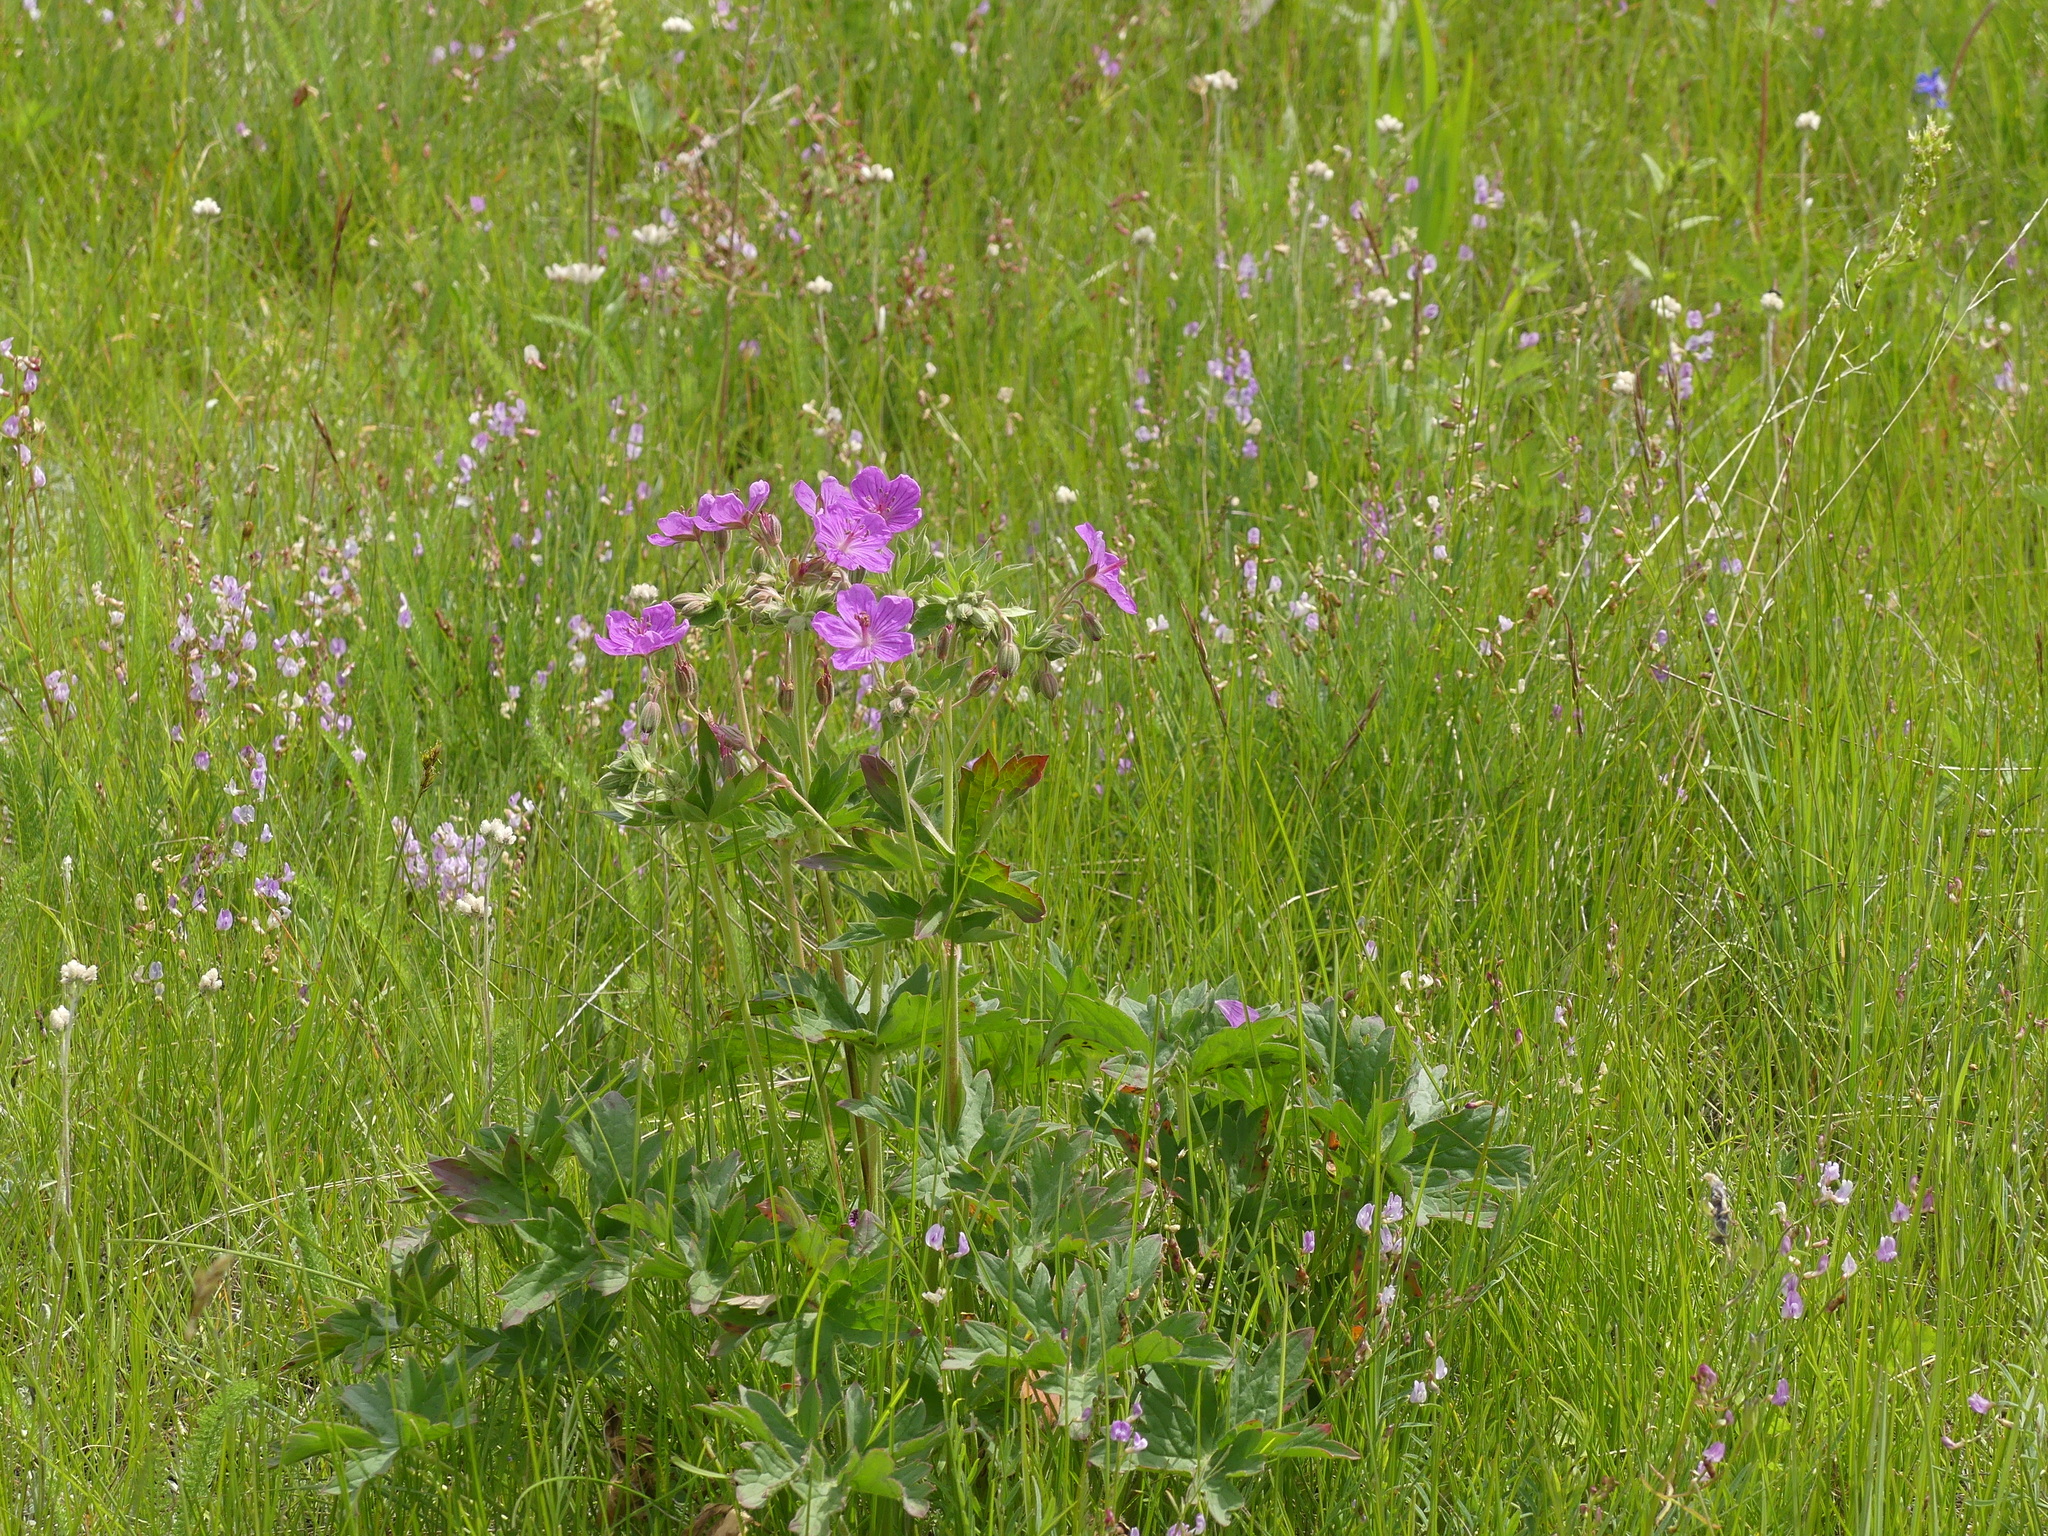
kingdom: Plantae
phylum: Tracheophyta
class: Magnoliopsida
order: Geraniales
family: Geraniaceae
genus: Geranium
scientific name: Geranium viscosissimum
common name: Purple geranium
